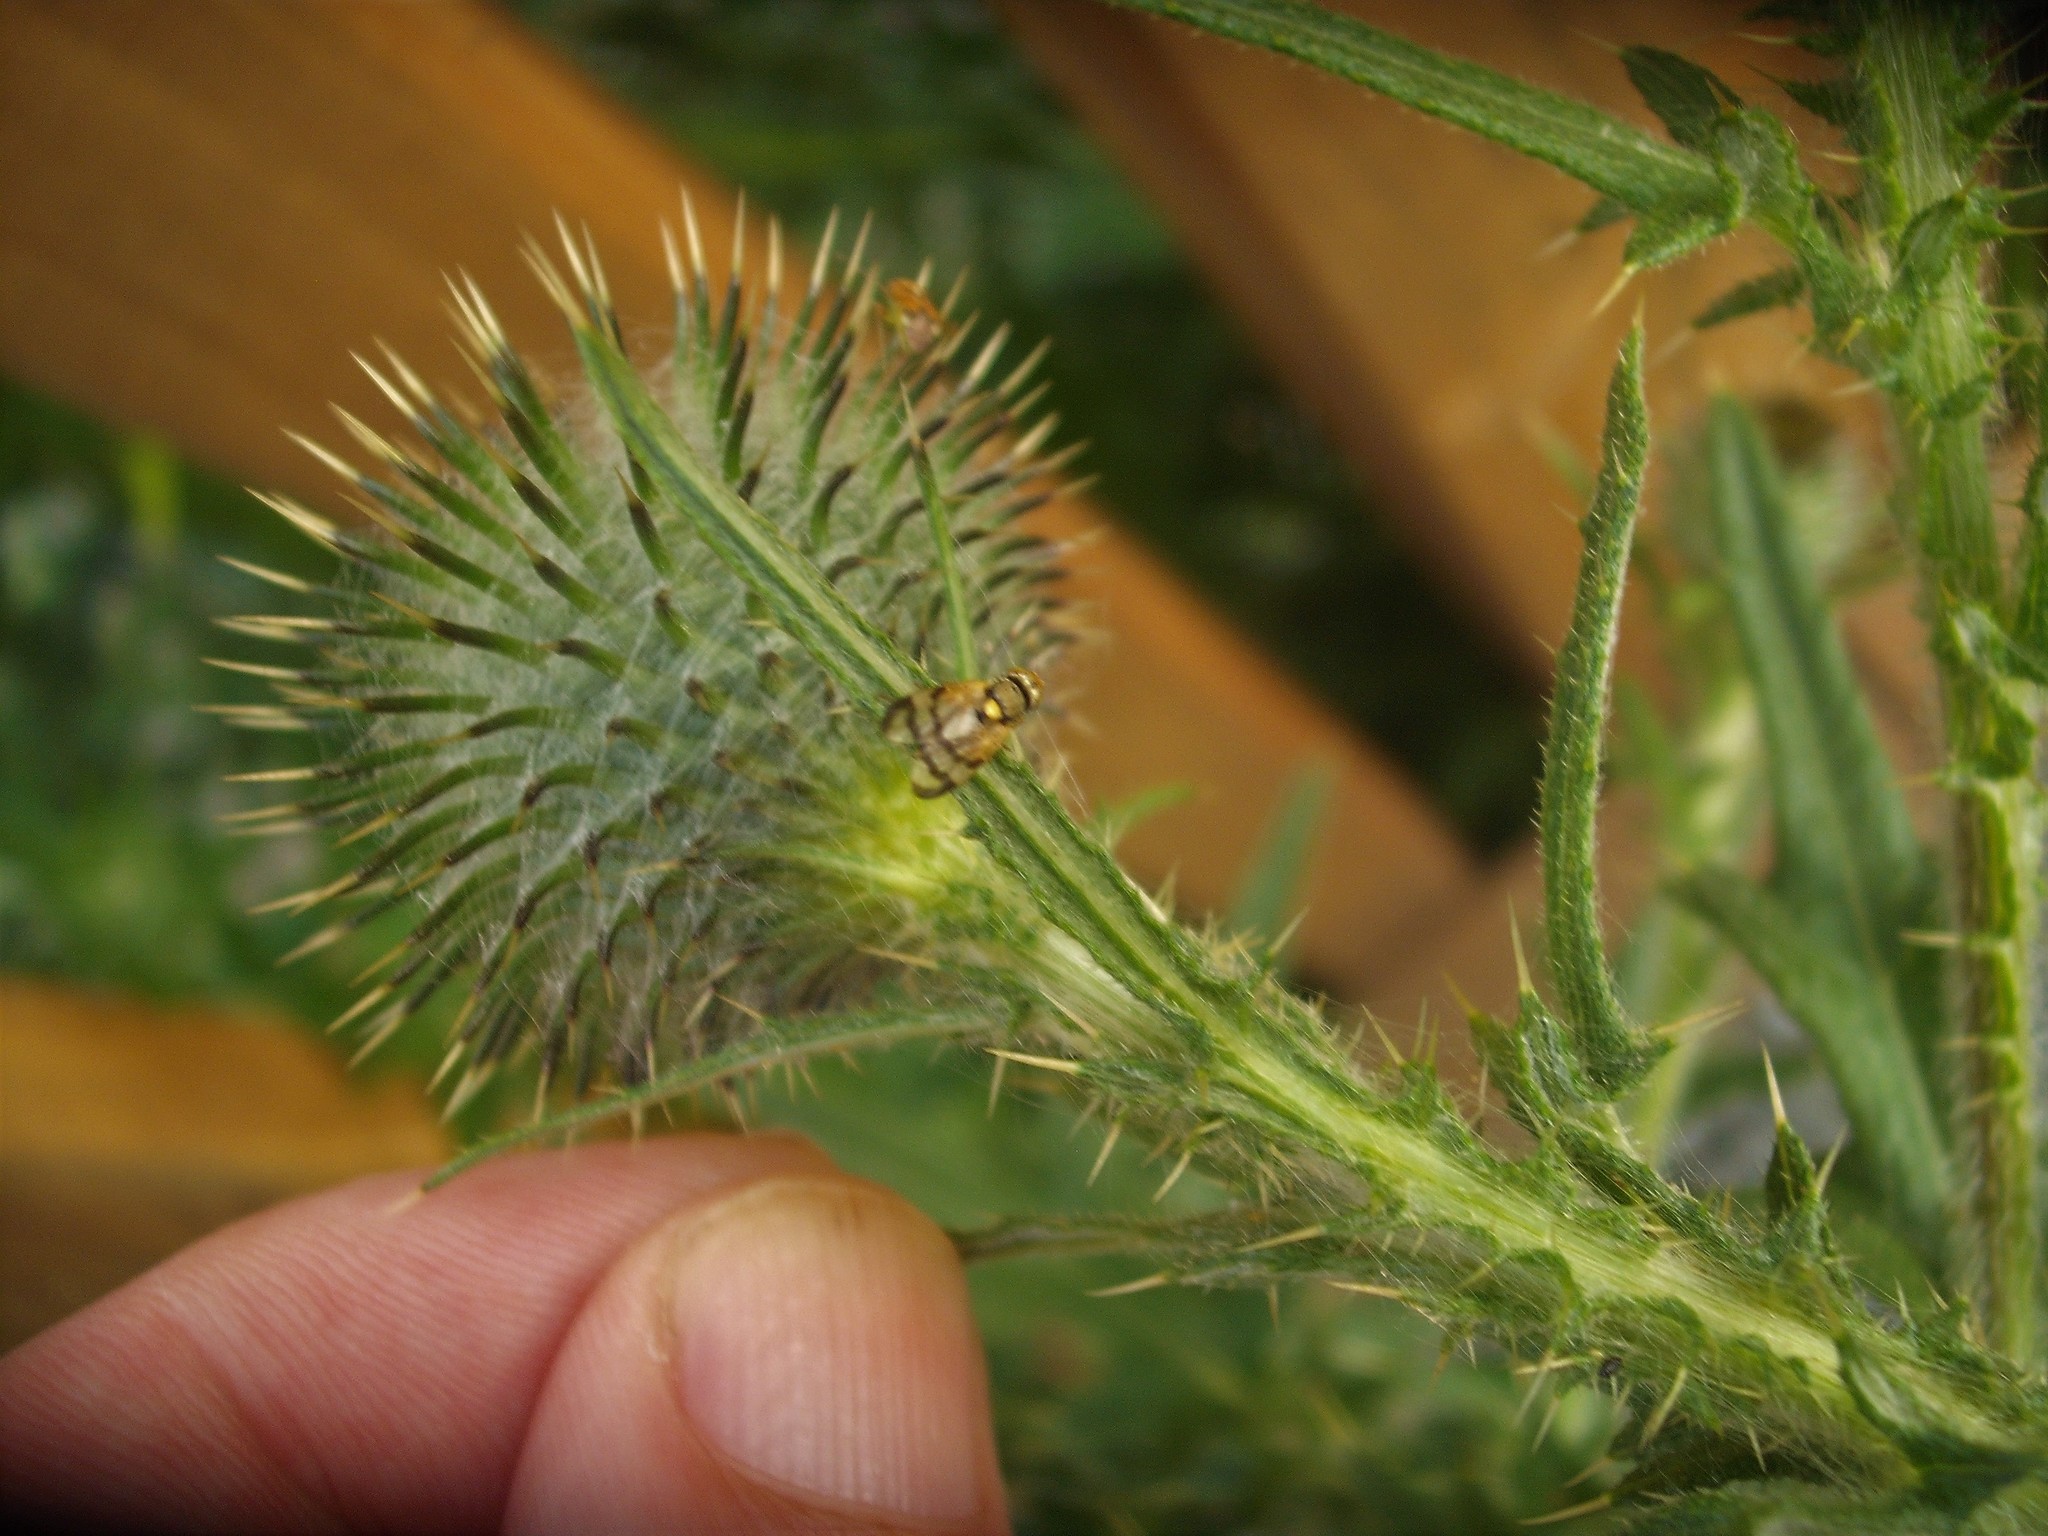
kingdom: Animalia
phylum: Arthropoda
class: Insecta
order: Diptera
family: Tephritidae
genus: Urophora
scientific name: Urophora stylata
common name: Fruit fly
